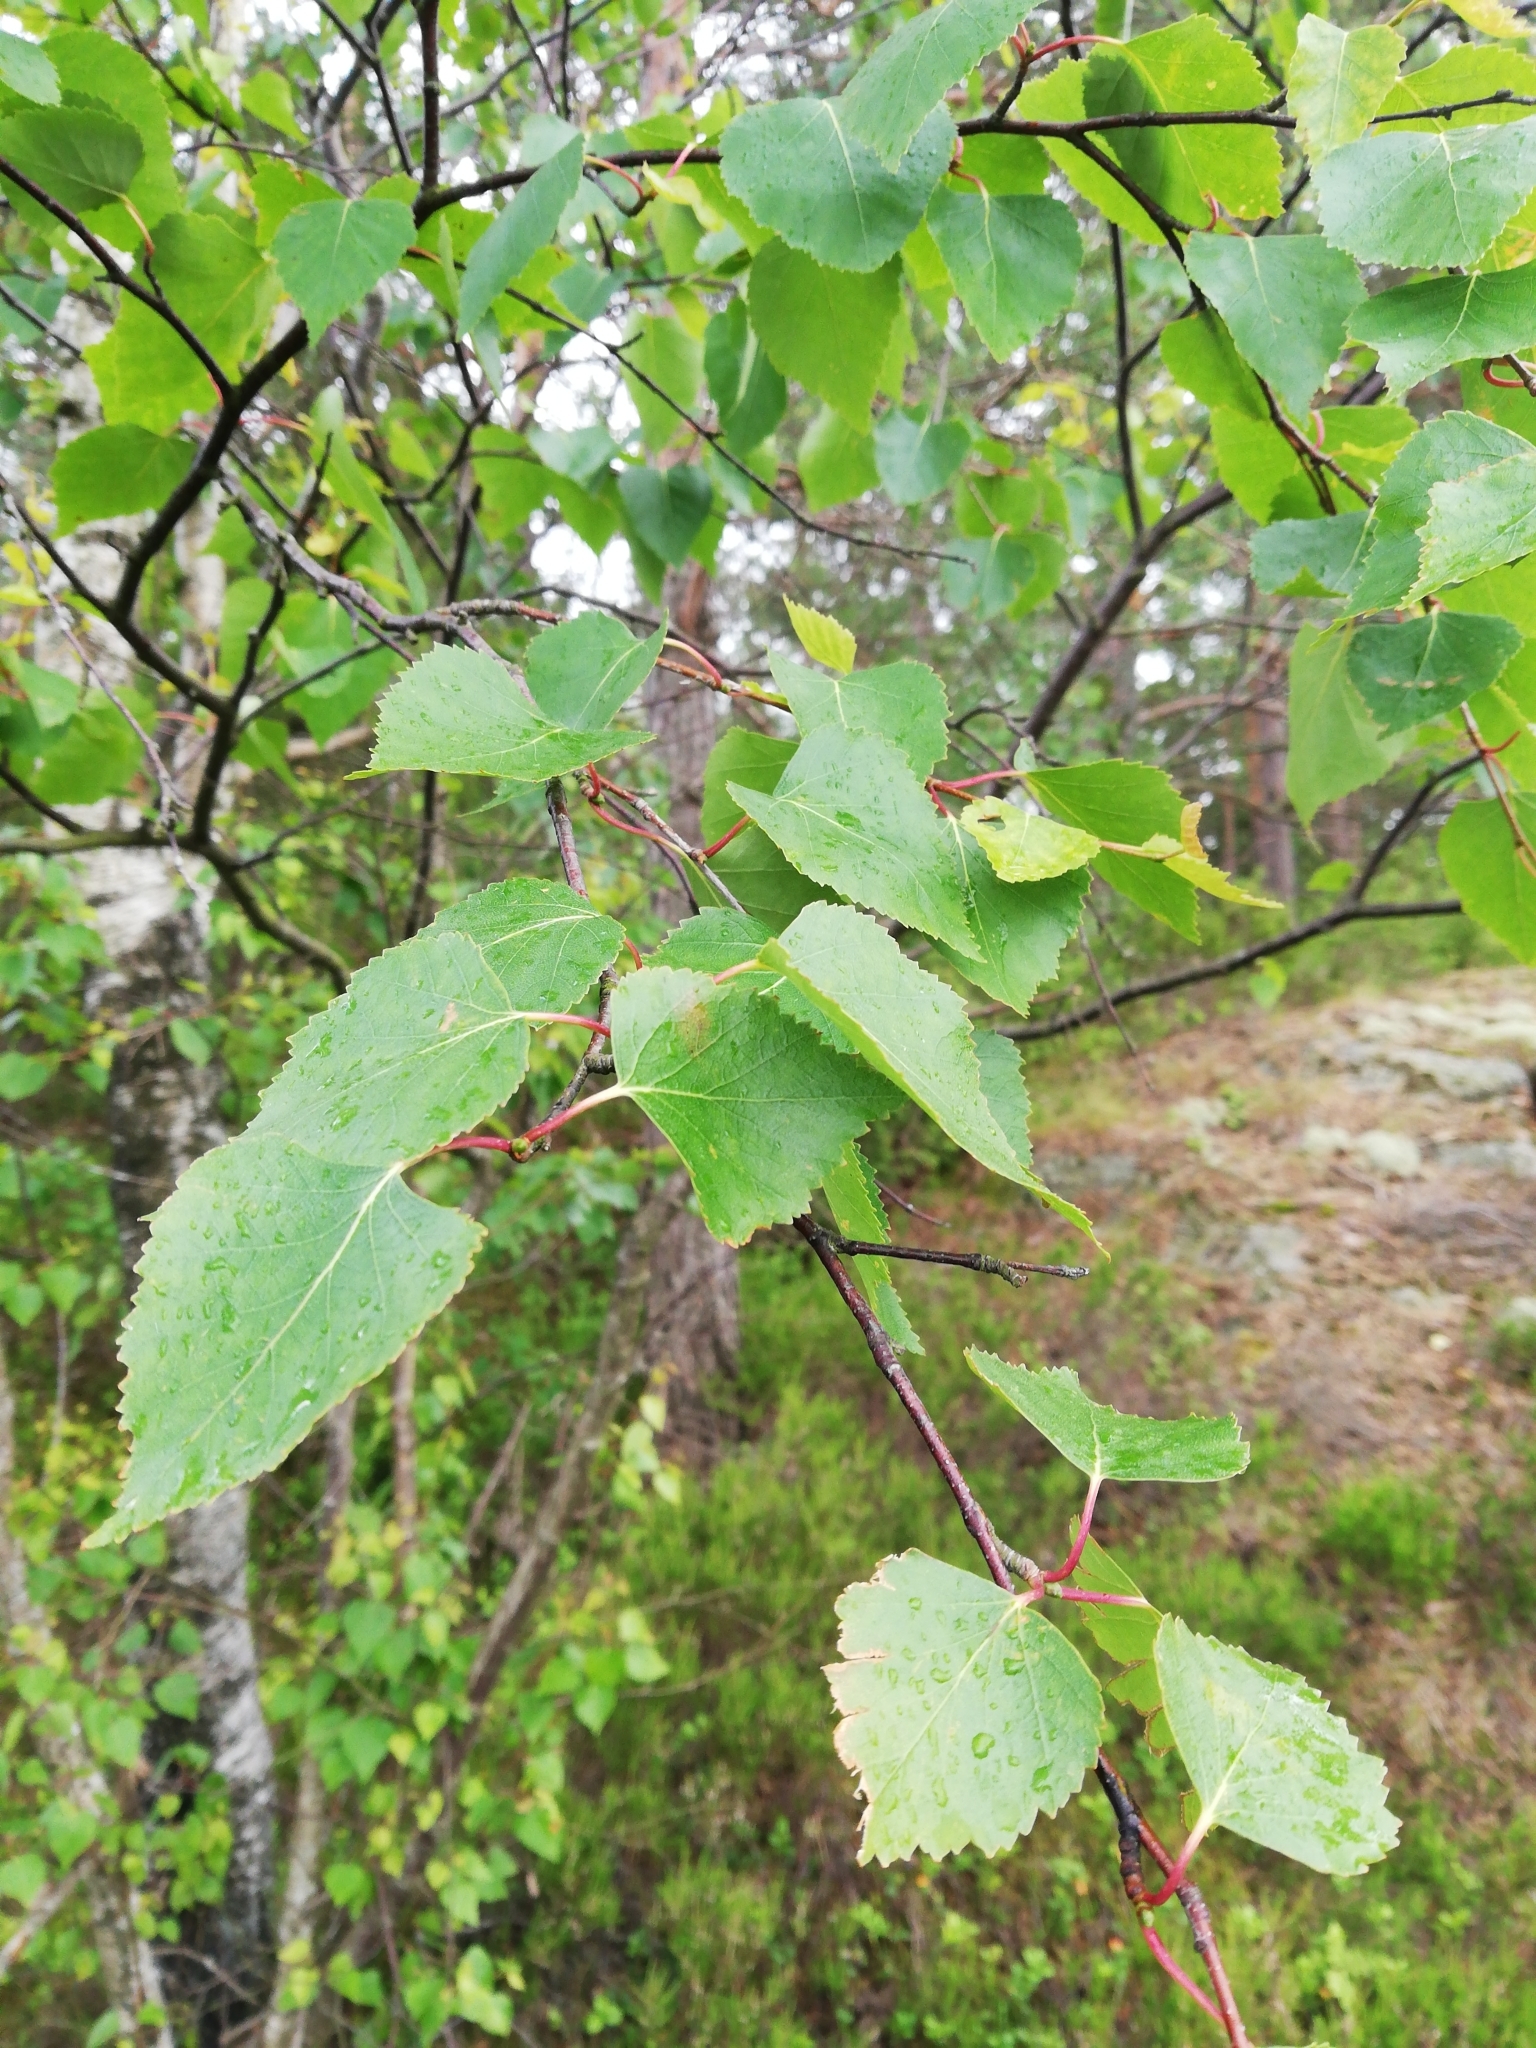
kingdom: Plantae
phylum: Tracheophyta
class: Magnoliopsida
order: Fagales
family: Betulaceae
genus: Betula
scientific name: Betula pendula
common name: Silver birch
